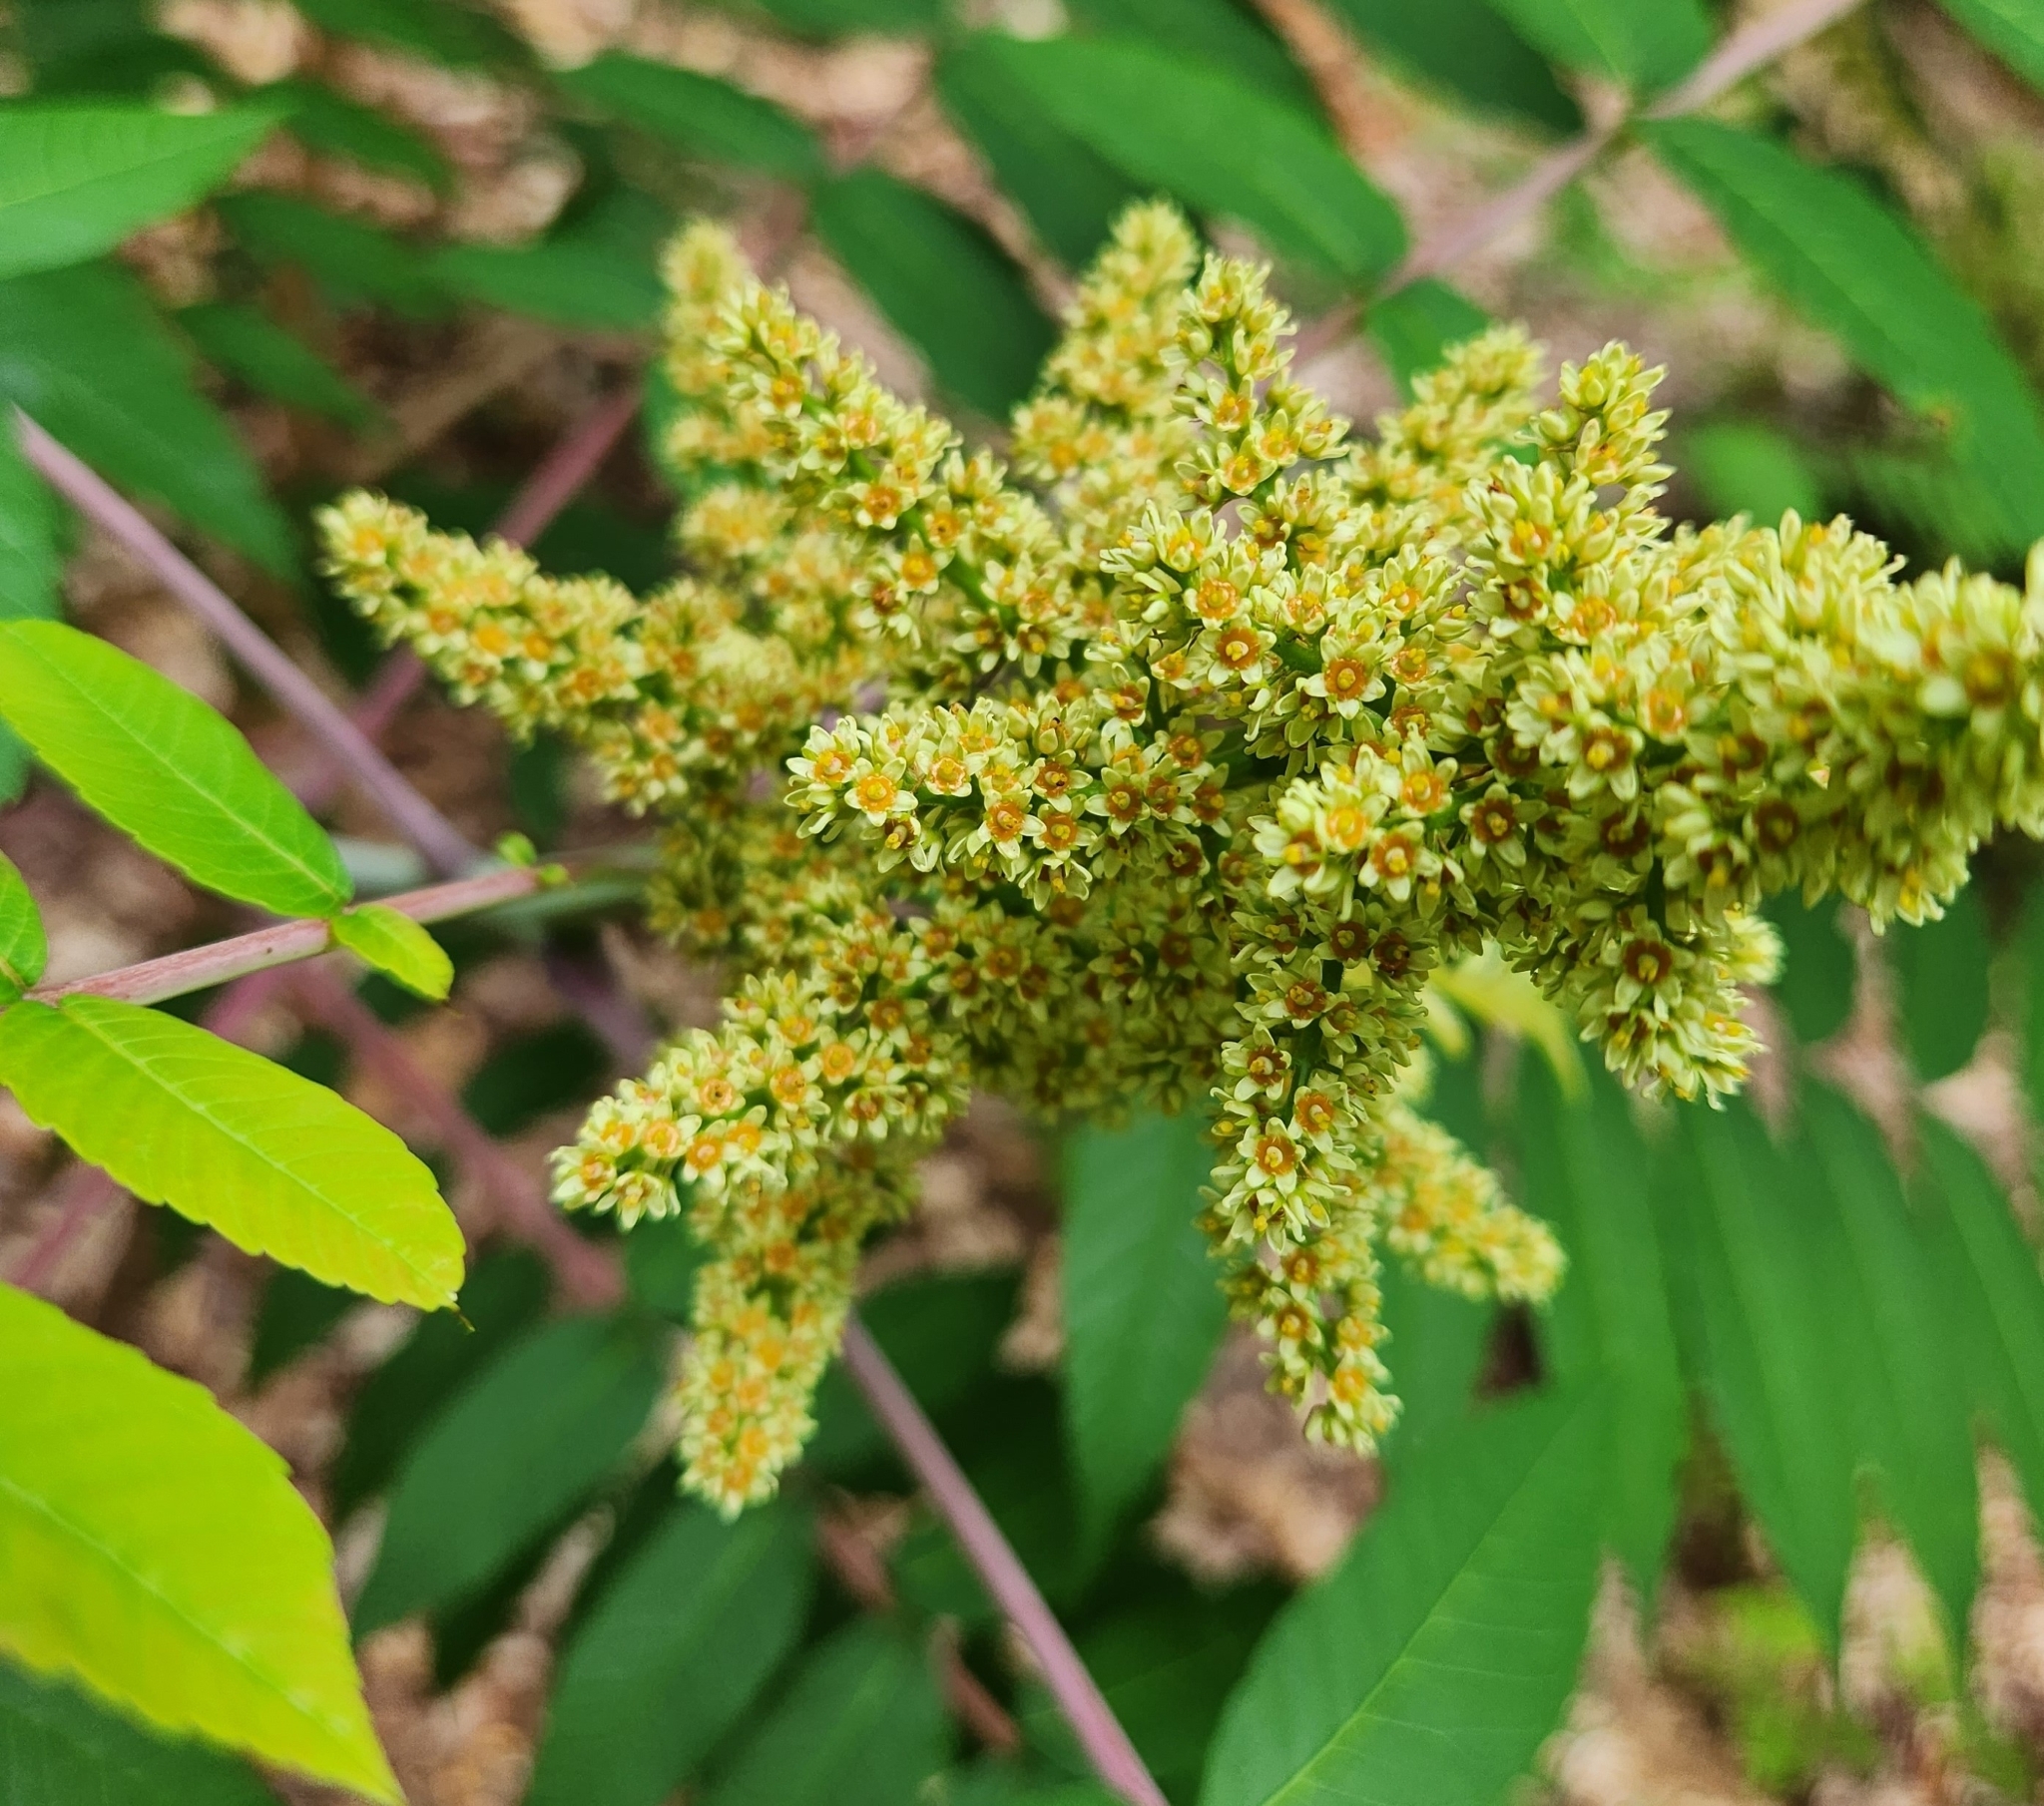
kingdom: Plantae
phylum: Tracheophyta
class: Magnoliopsida
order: Sapindales
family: Anacardiaceae
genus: Rhus
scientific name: Rhus glabra
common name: Scarlet sumac
